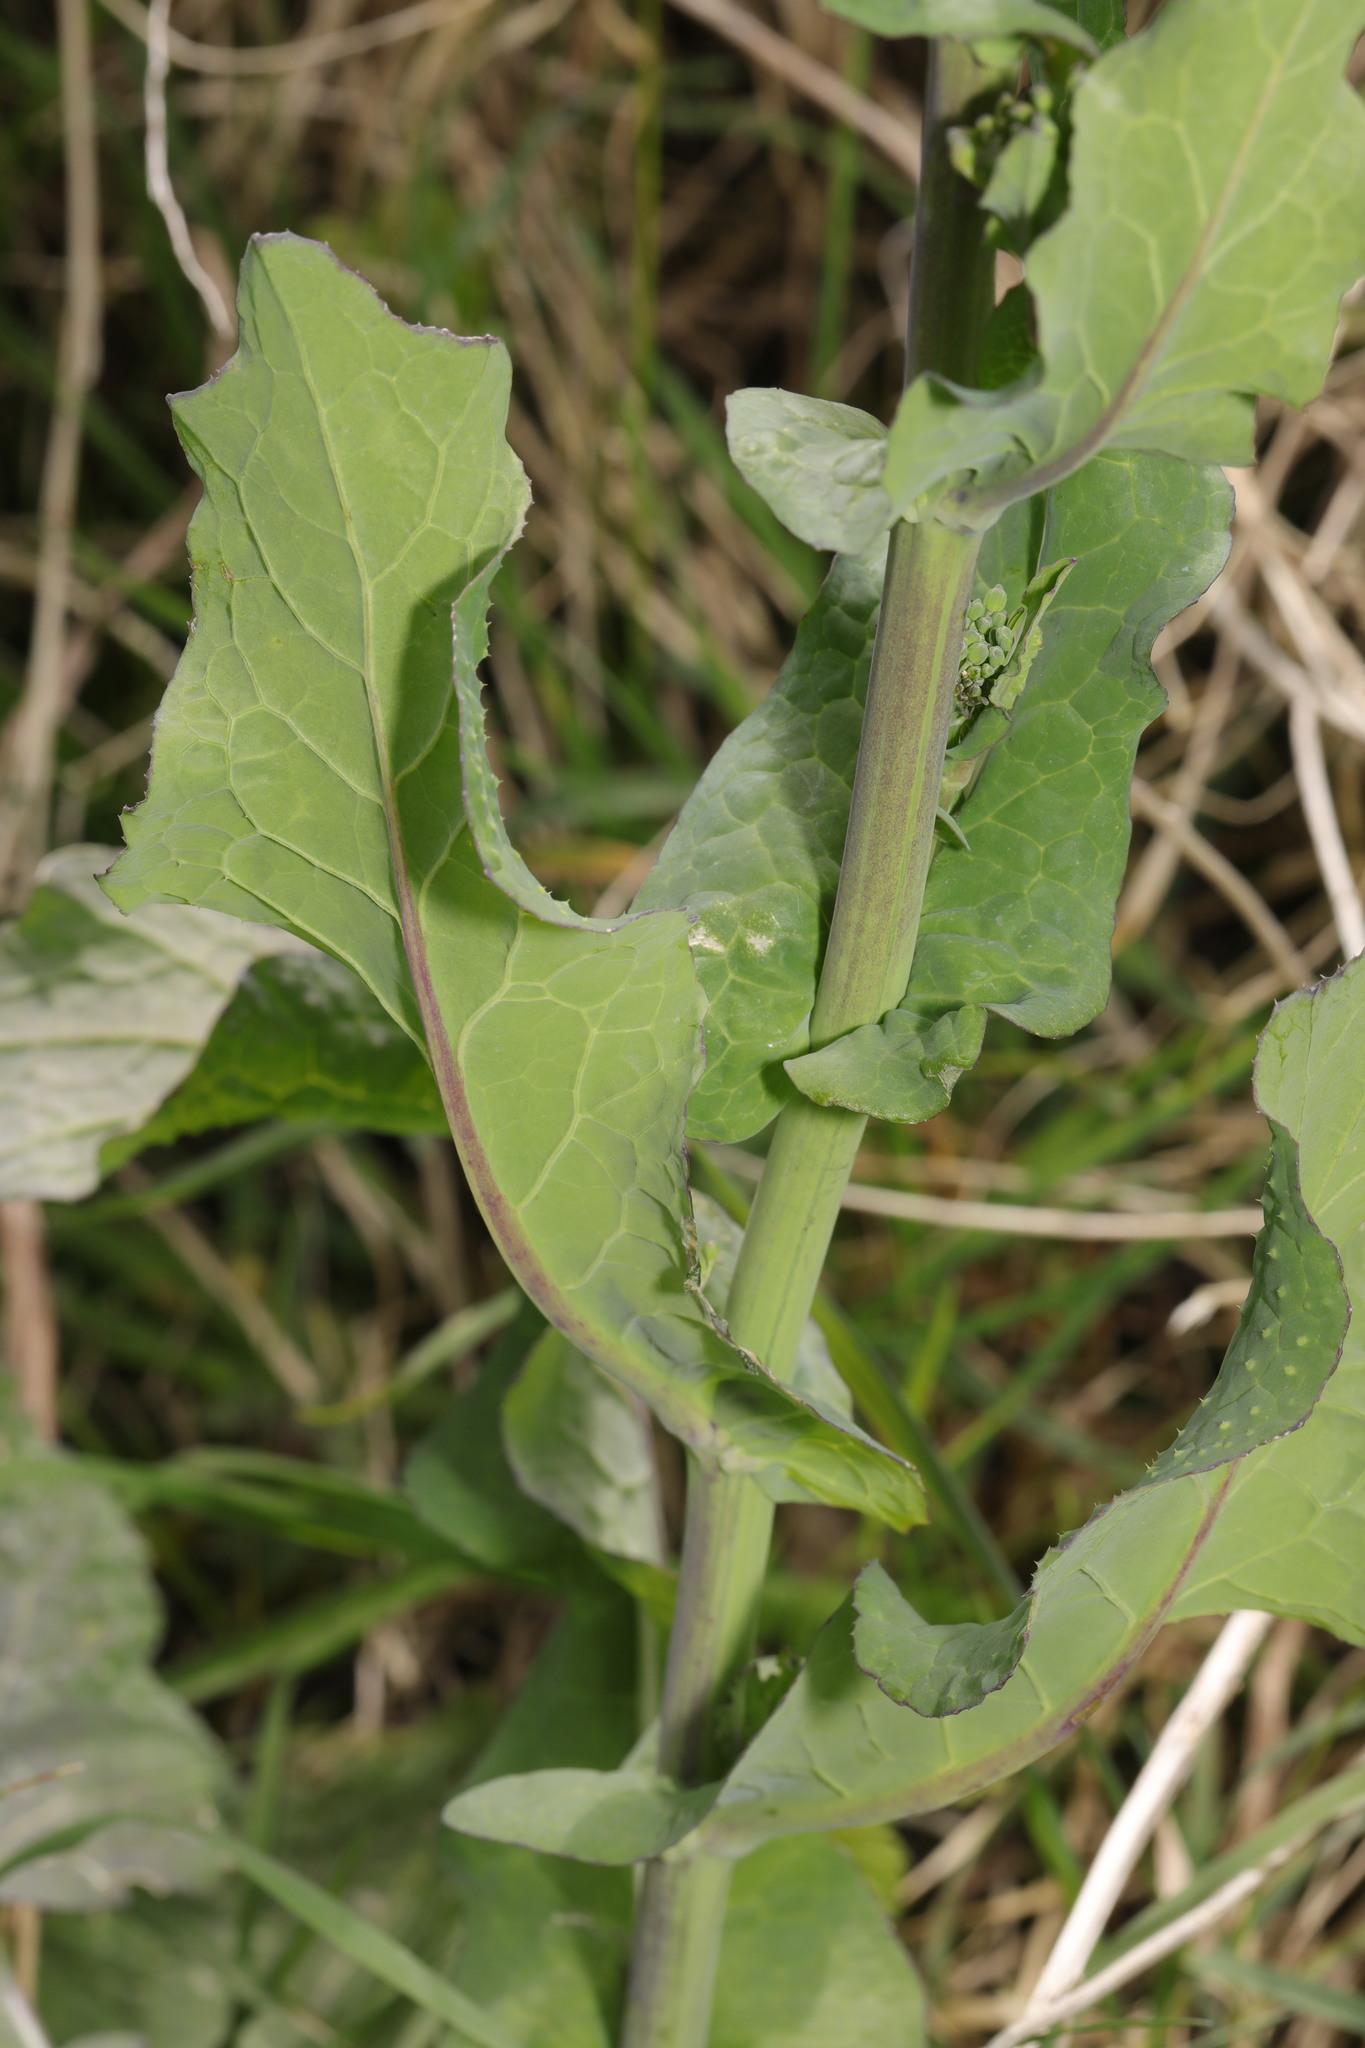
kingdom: Plantae
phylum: Tracheophyta
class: Magnoliopsida
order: Brassicales
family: Brassicaceae
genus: Brassica
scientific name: Brassica rapa
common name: Field mustard
